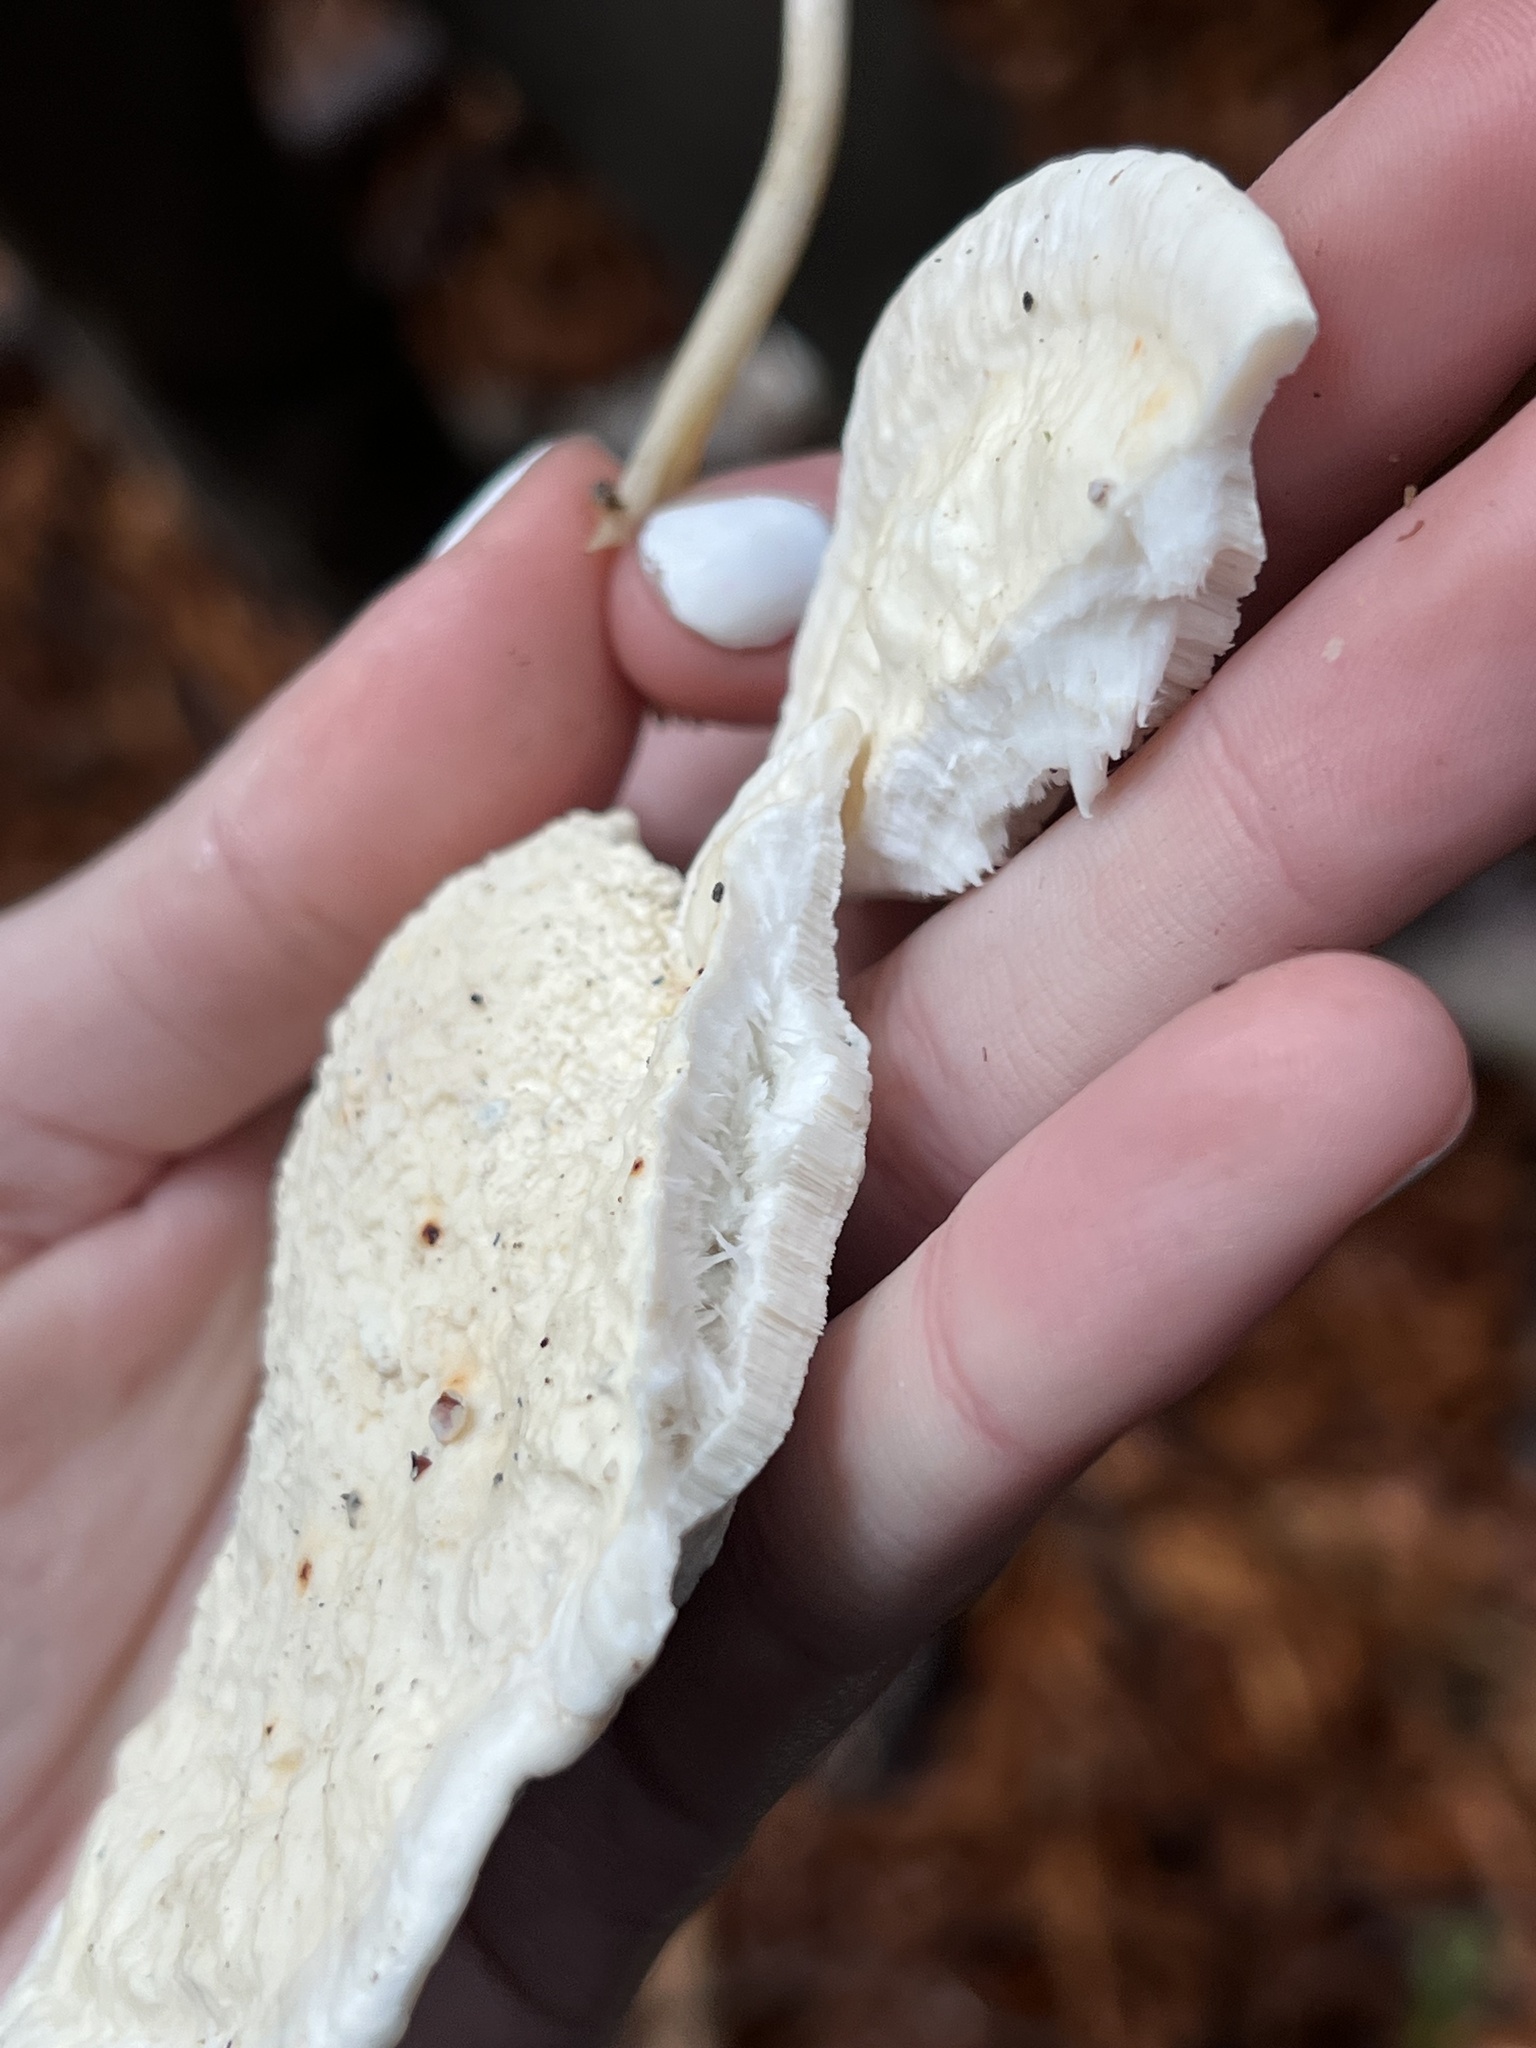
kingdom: Fungi
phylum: Basidiomycota
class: Agaricomycetes
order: Polyporales
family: Incrustoporiaceae
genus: Tyromyces
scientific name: Tyromyces chioneus
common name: White cheese polypore
